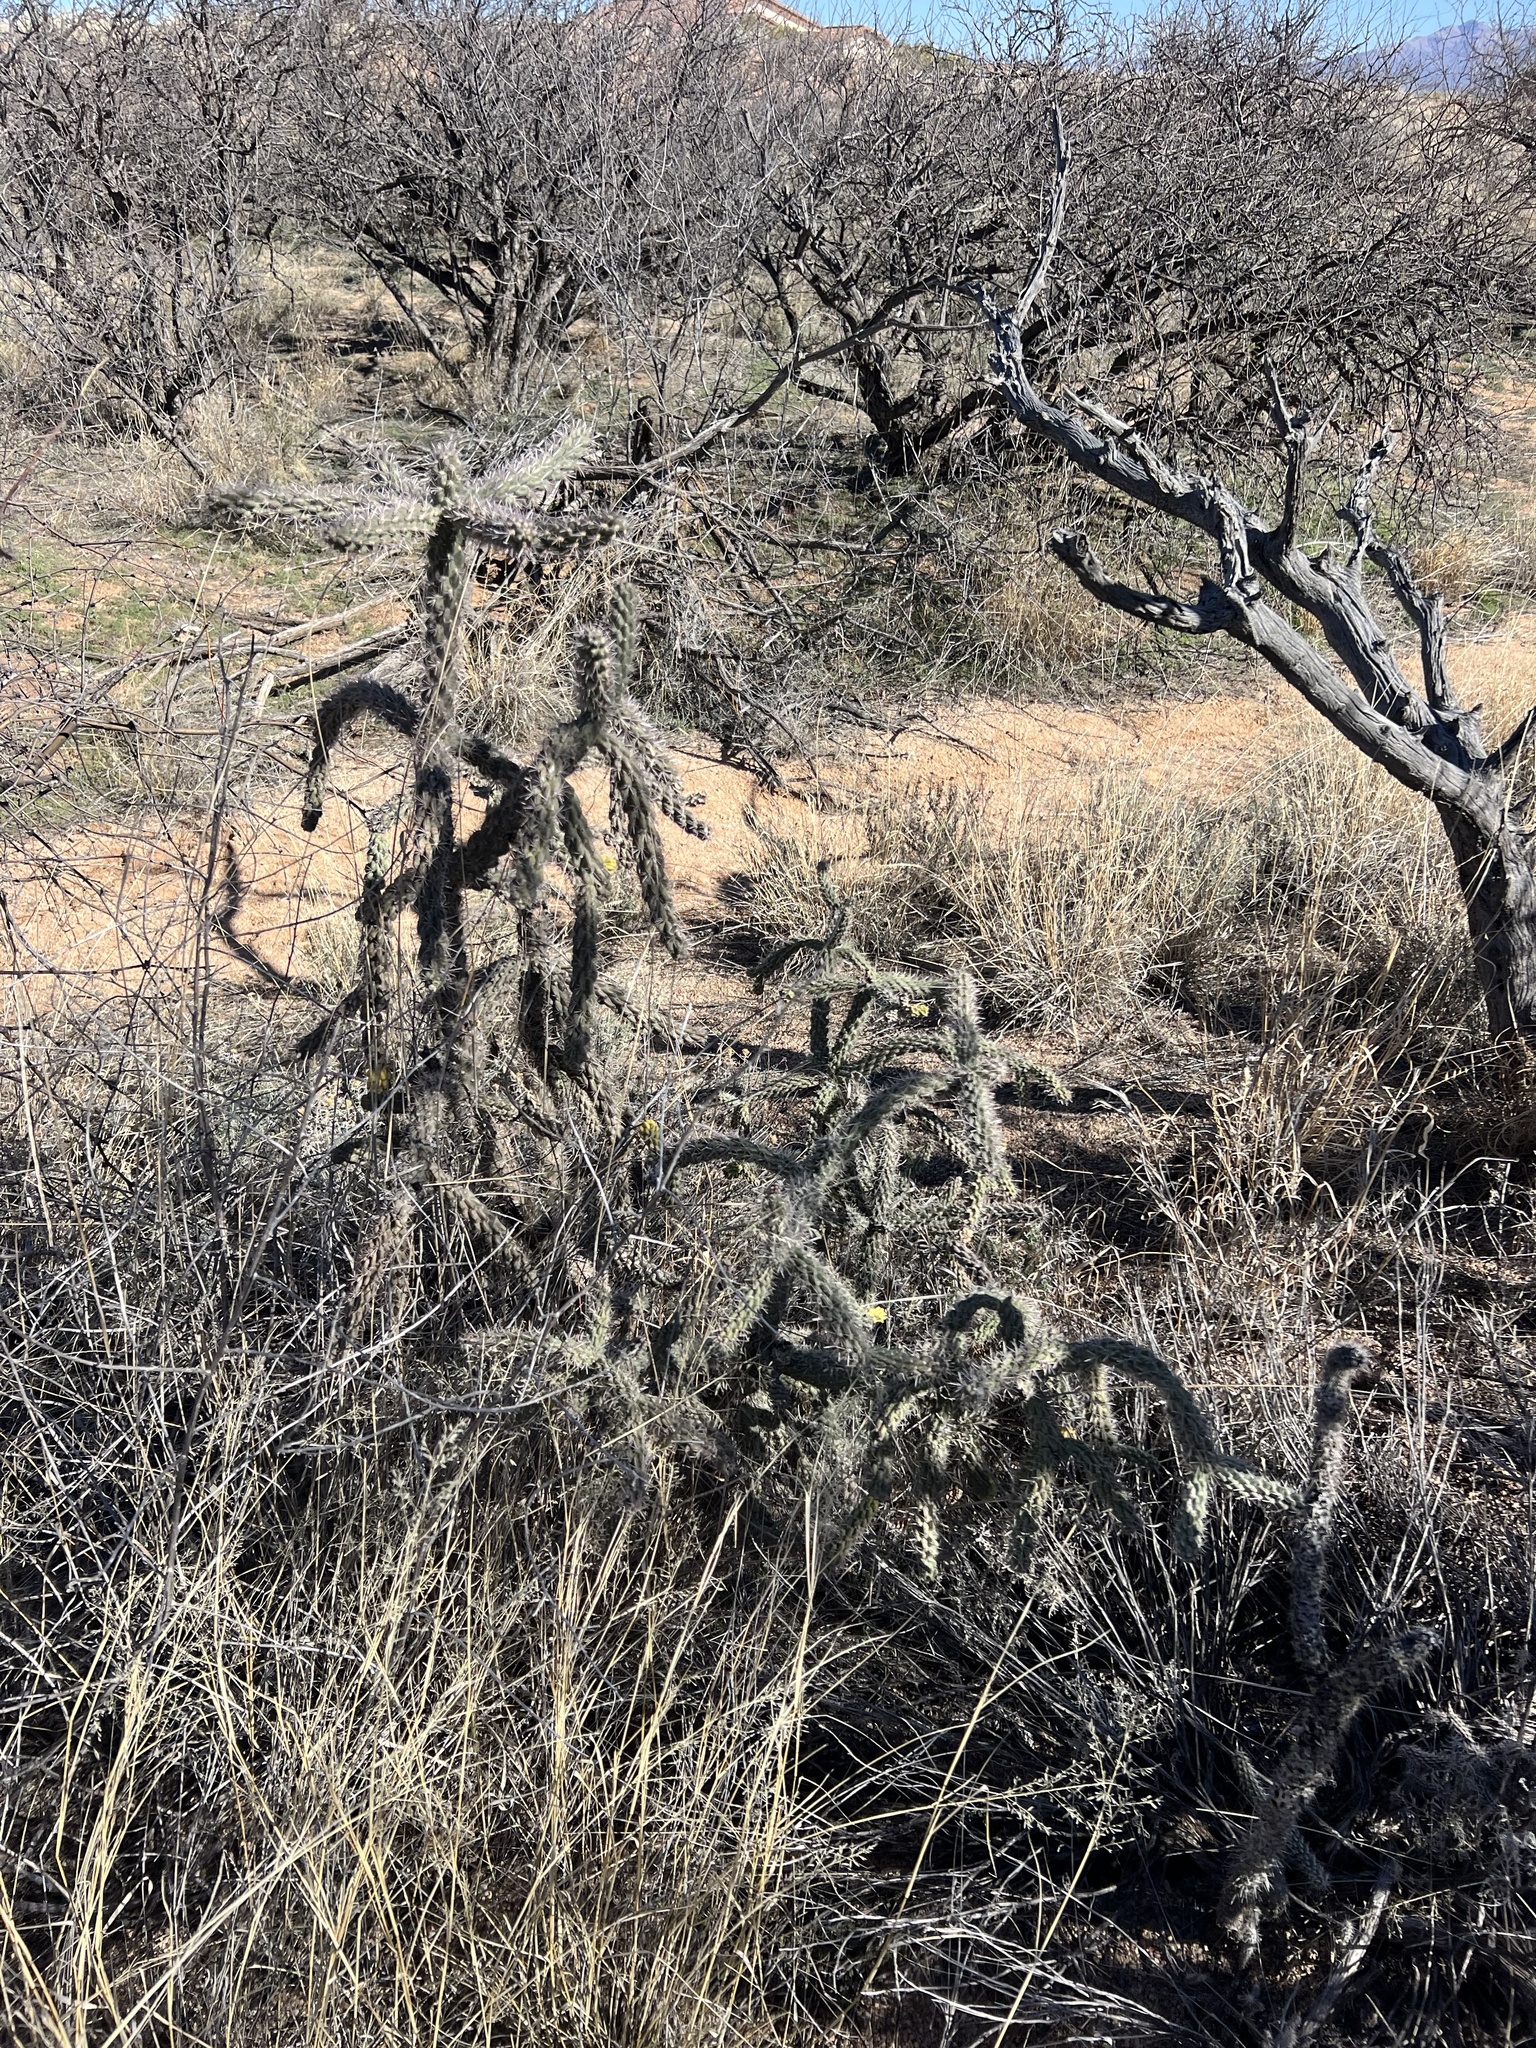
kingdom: Plantae
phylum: Tracheophyta
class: Magnoliopsida
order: Caryophyllales
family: Cactaceae
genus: Cylindropuntia
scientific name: Cylindropuntia imbricata
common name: Candelabrum cactus
